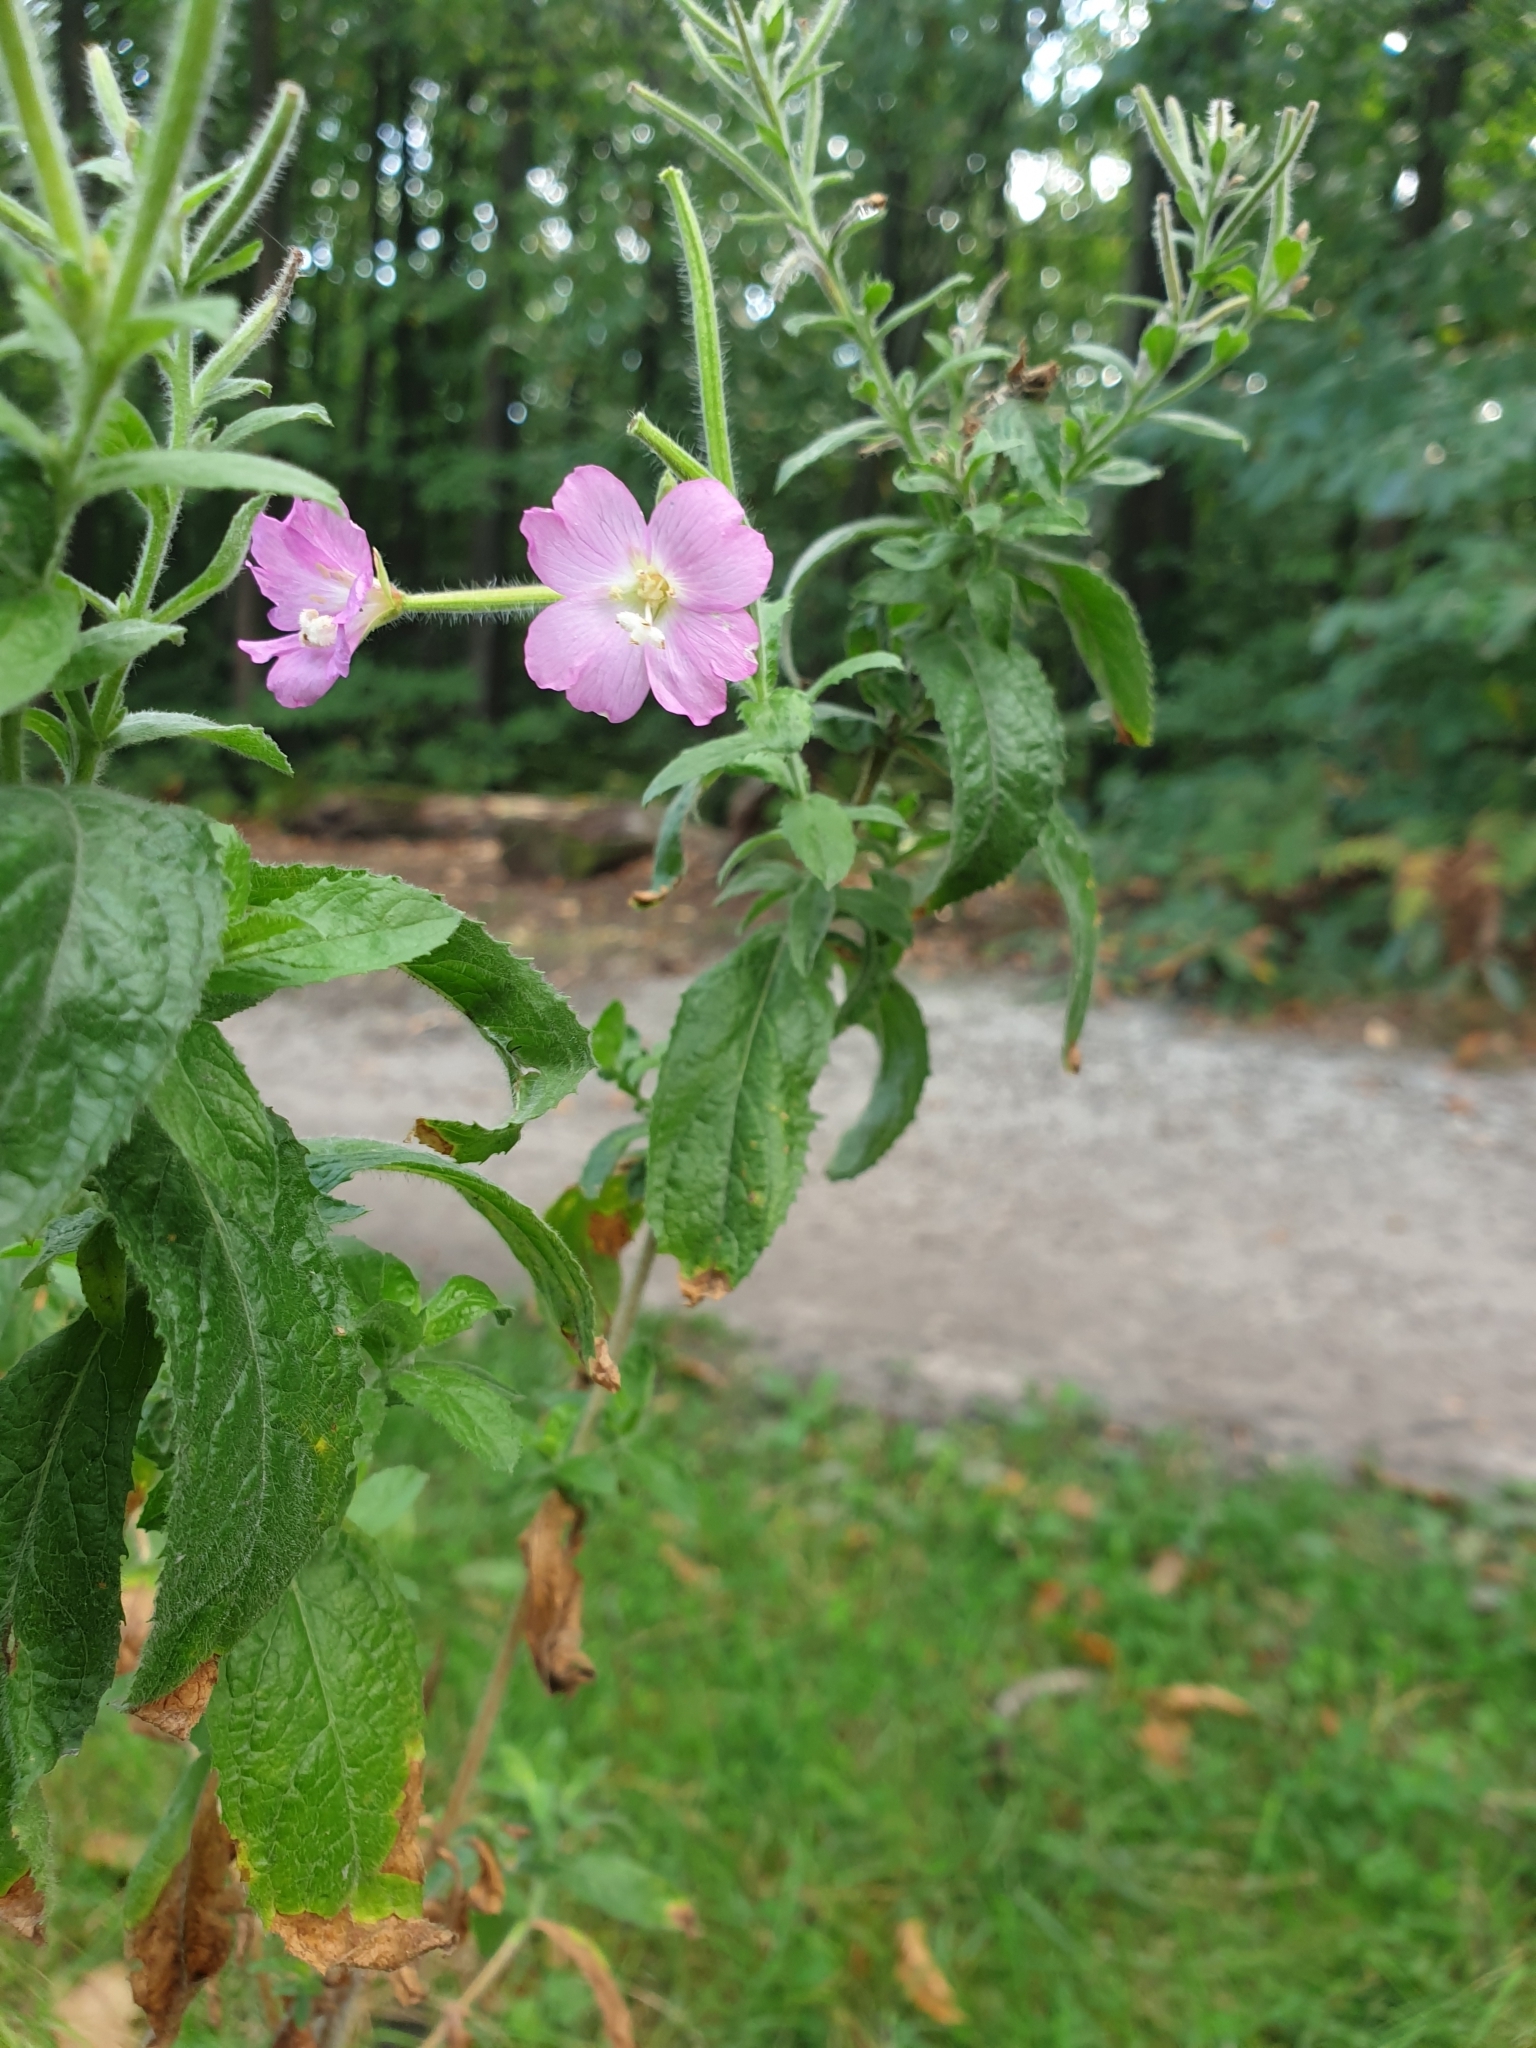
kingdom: Plantae
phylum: Tracheophyta
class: Magnoliopsida
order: Myrtales
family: Onagraceae
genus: Epilobium
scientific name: Epilobium hirsutum
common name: Great willowherb
